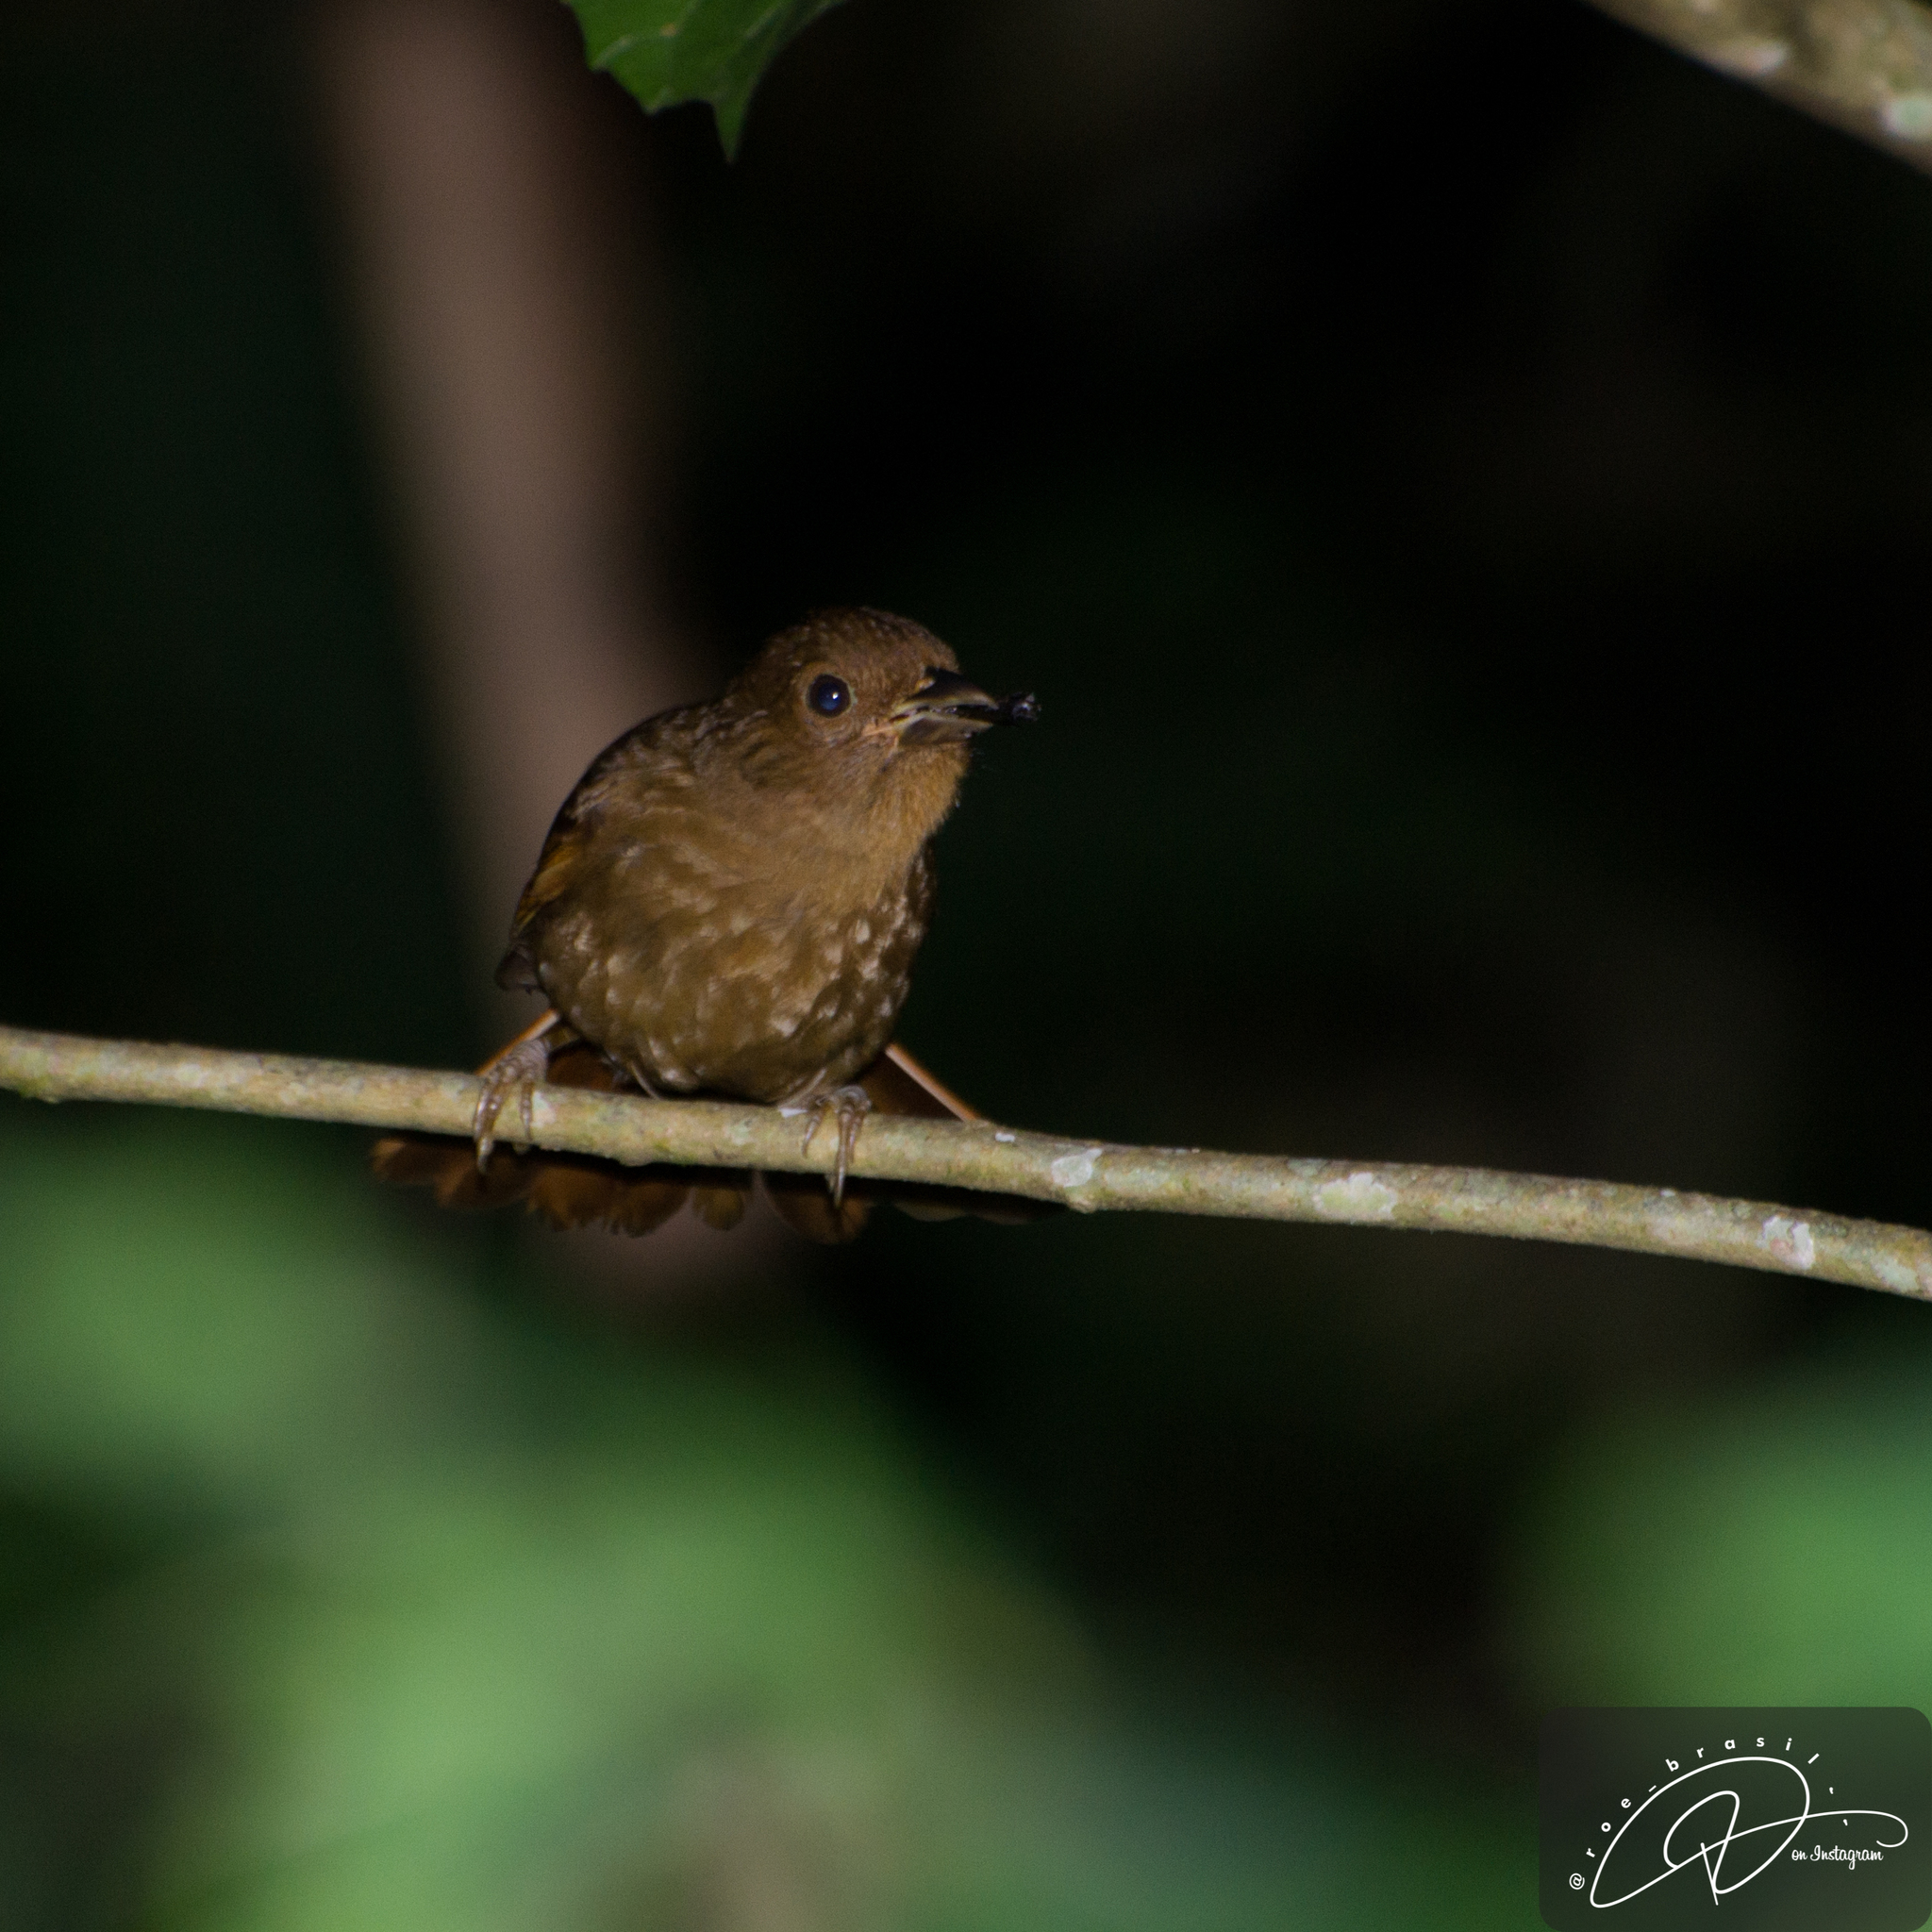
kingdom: Animalia
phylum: Chordata
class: Aves
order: Passeriformes
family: Cardinalidae
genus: Habia
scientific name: Habia rubica
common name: Red-crowned ant-tanager
